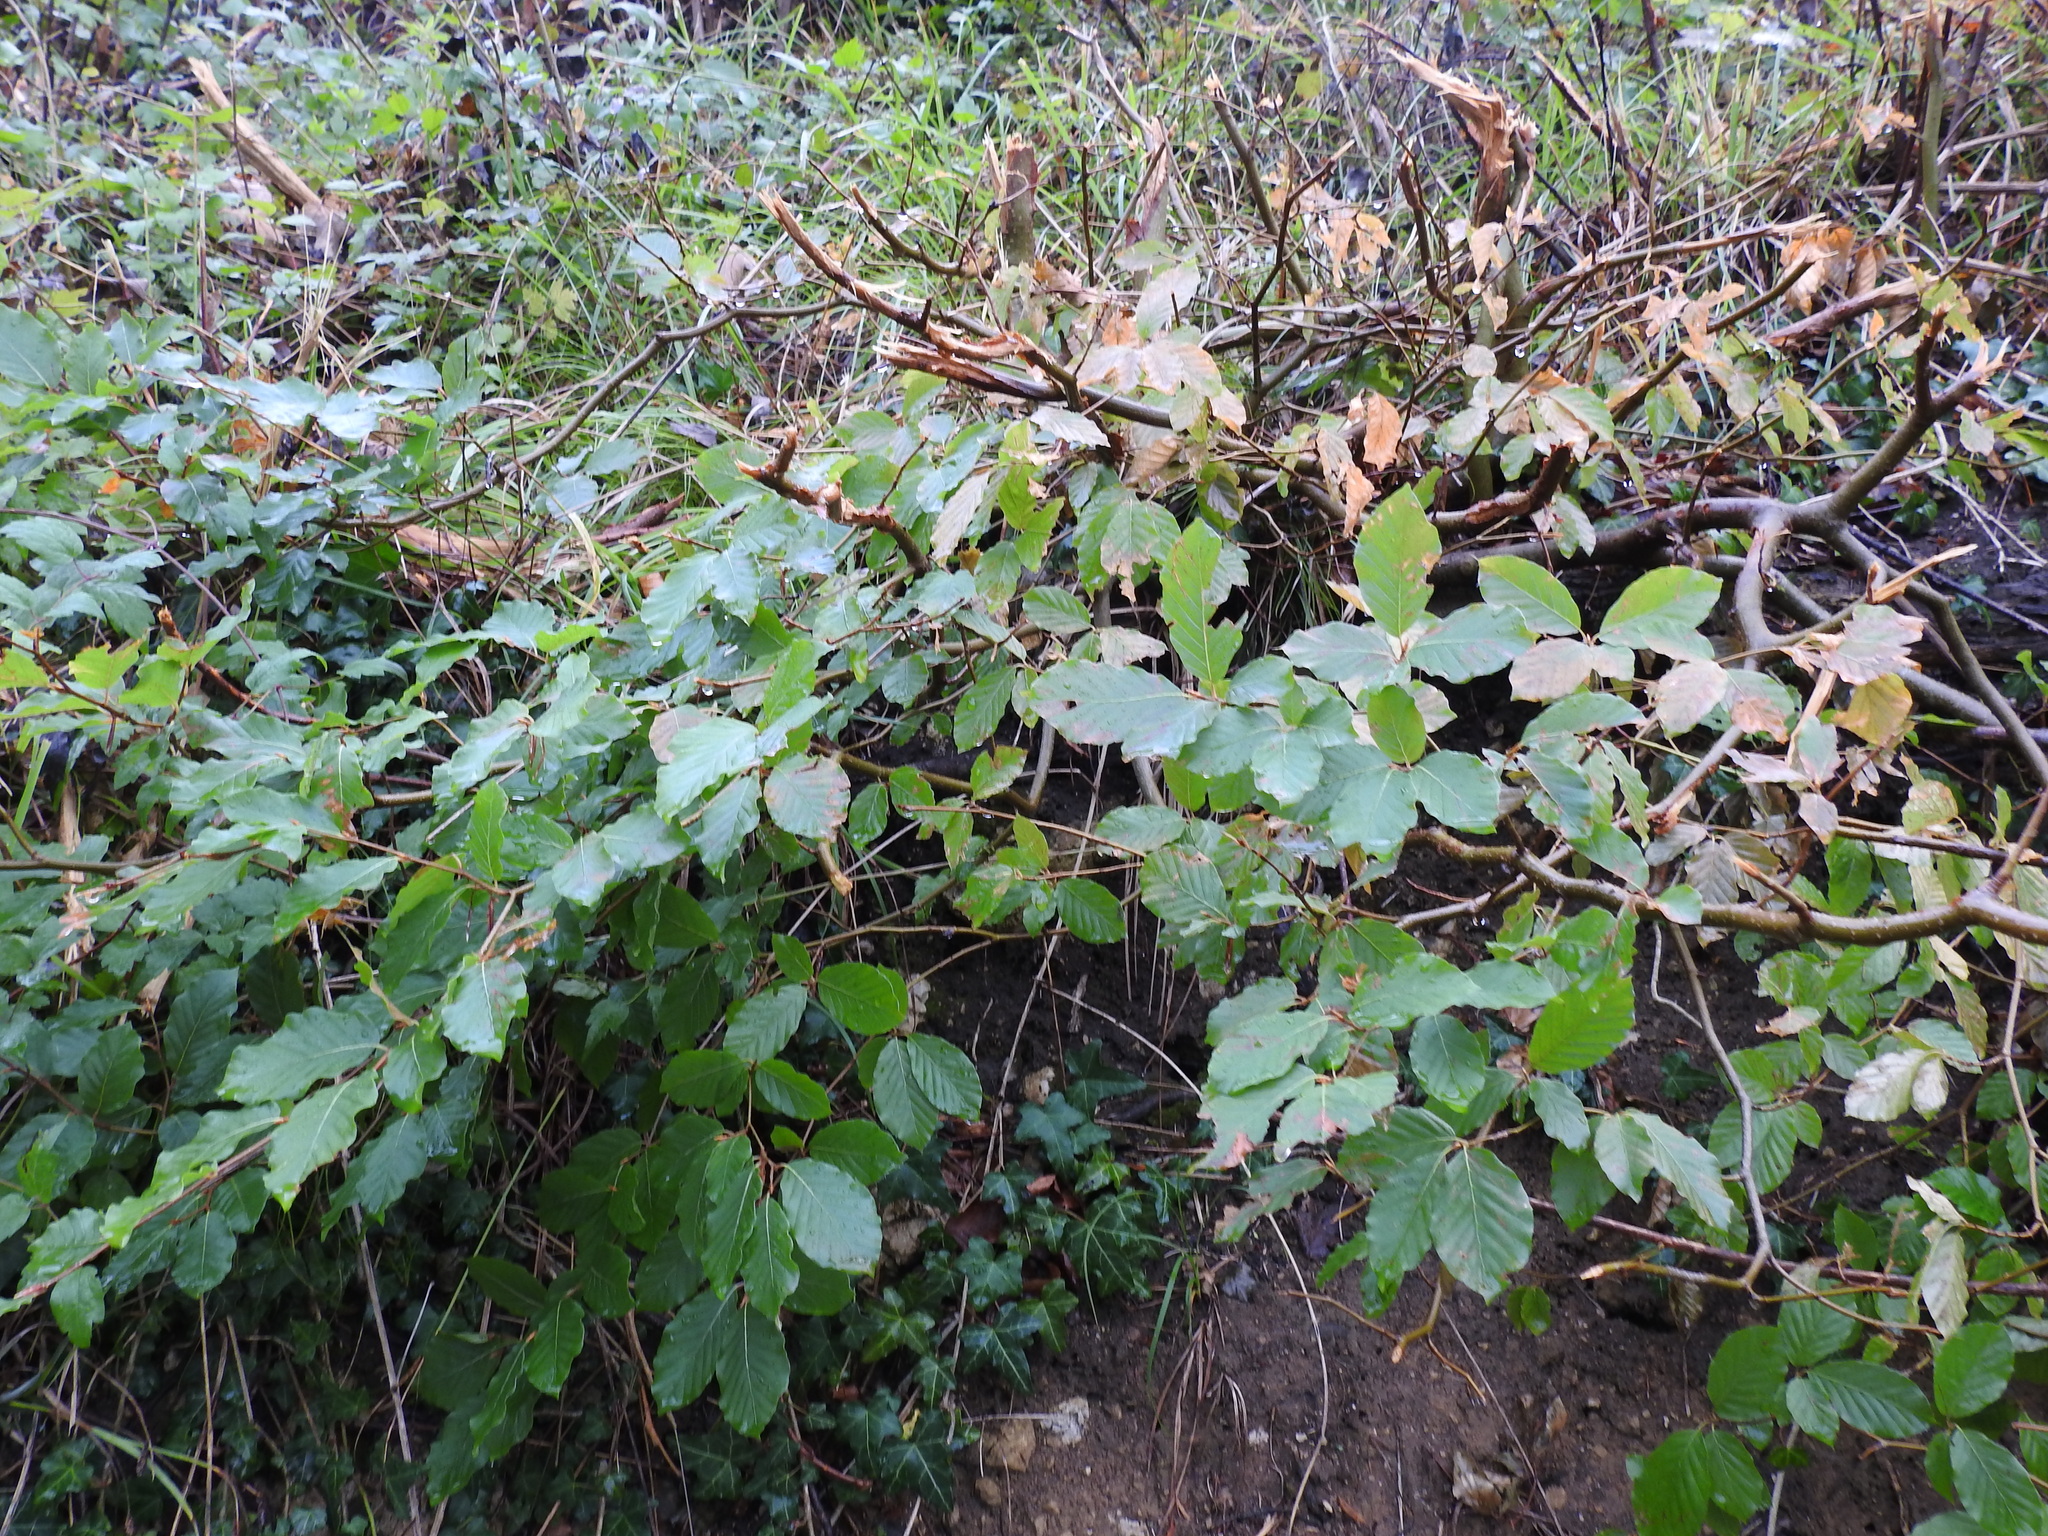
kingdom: Plantae
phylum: Tracheophyta
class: Magnoliopsida
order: Fagales
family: Fagaceae
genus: Fagus
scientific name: Fagus sylvatica
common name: Beech
